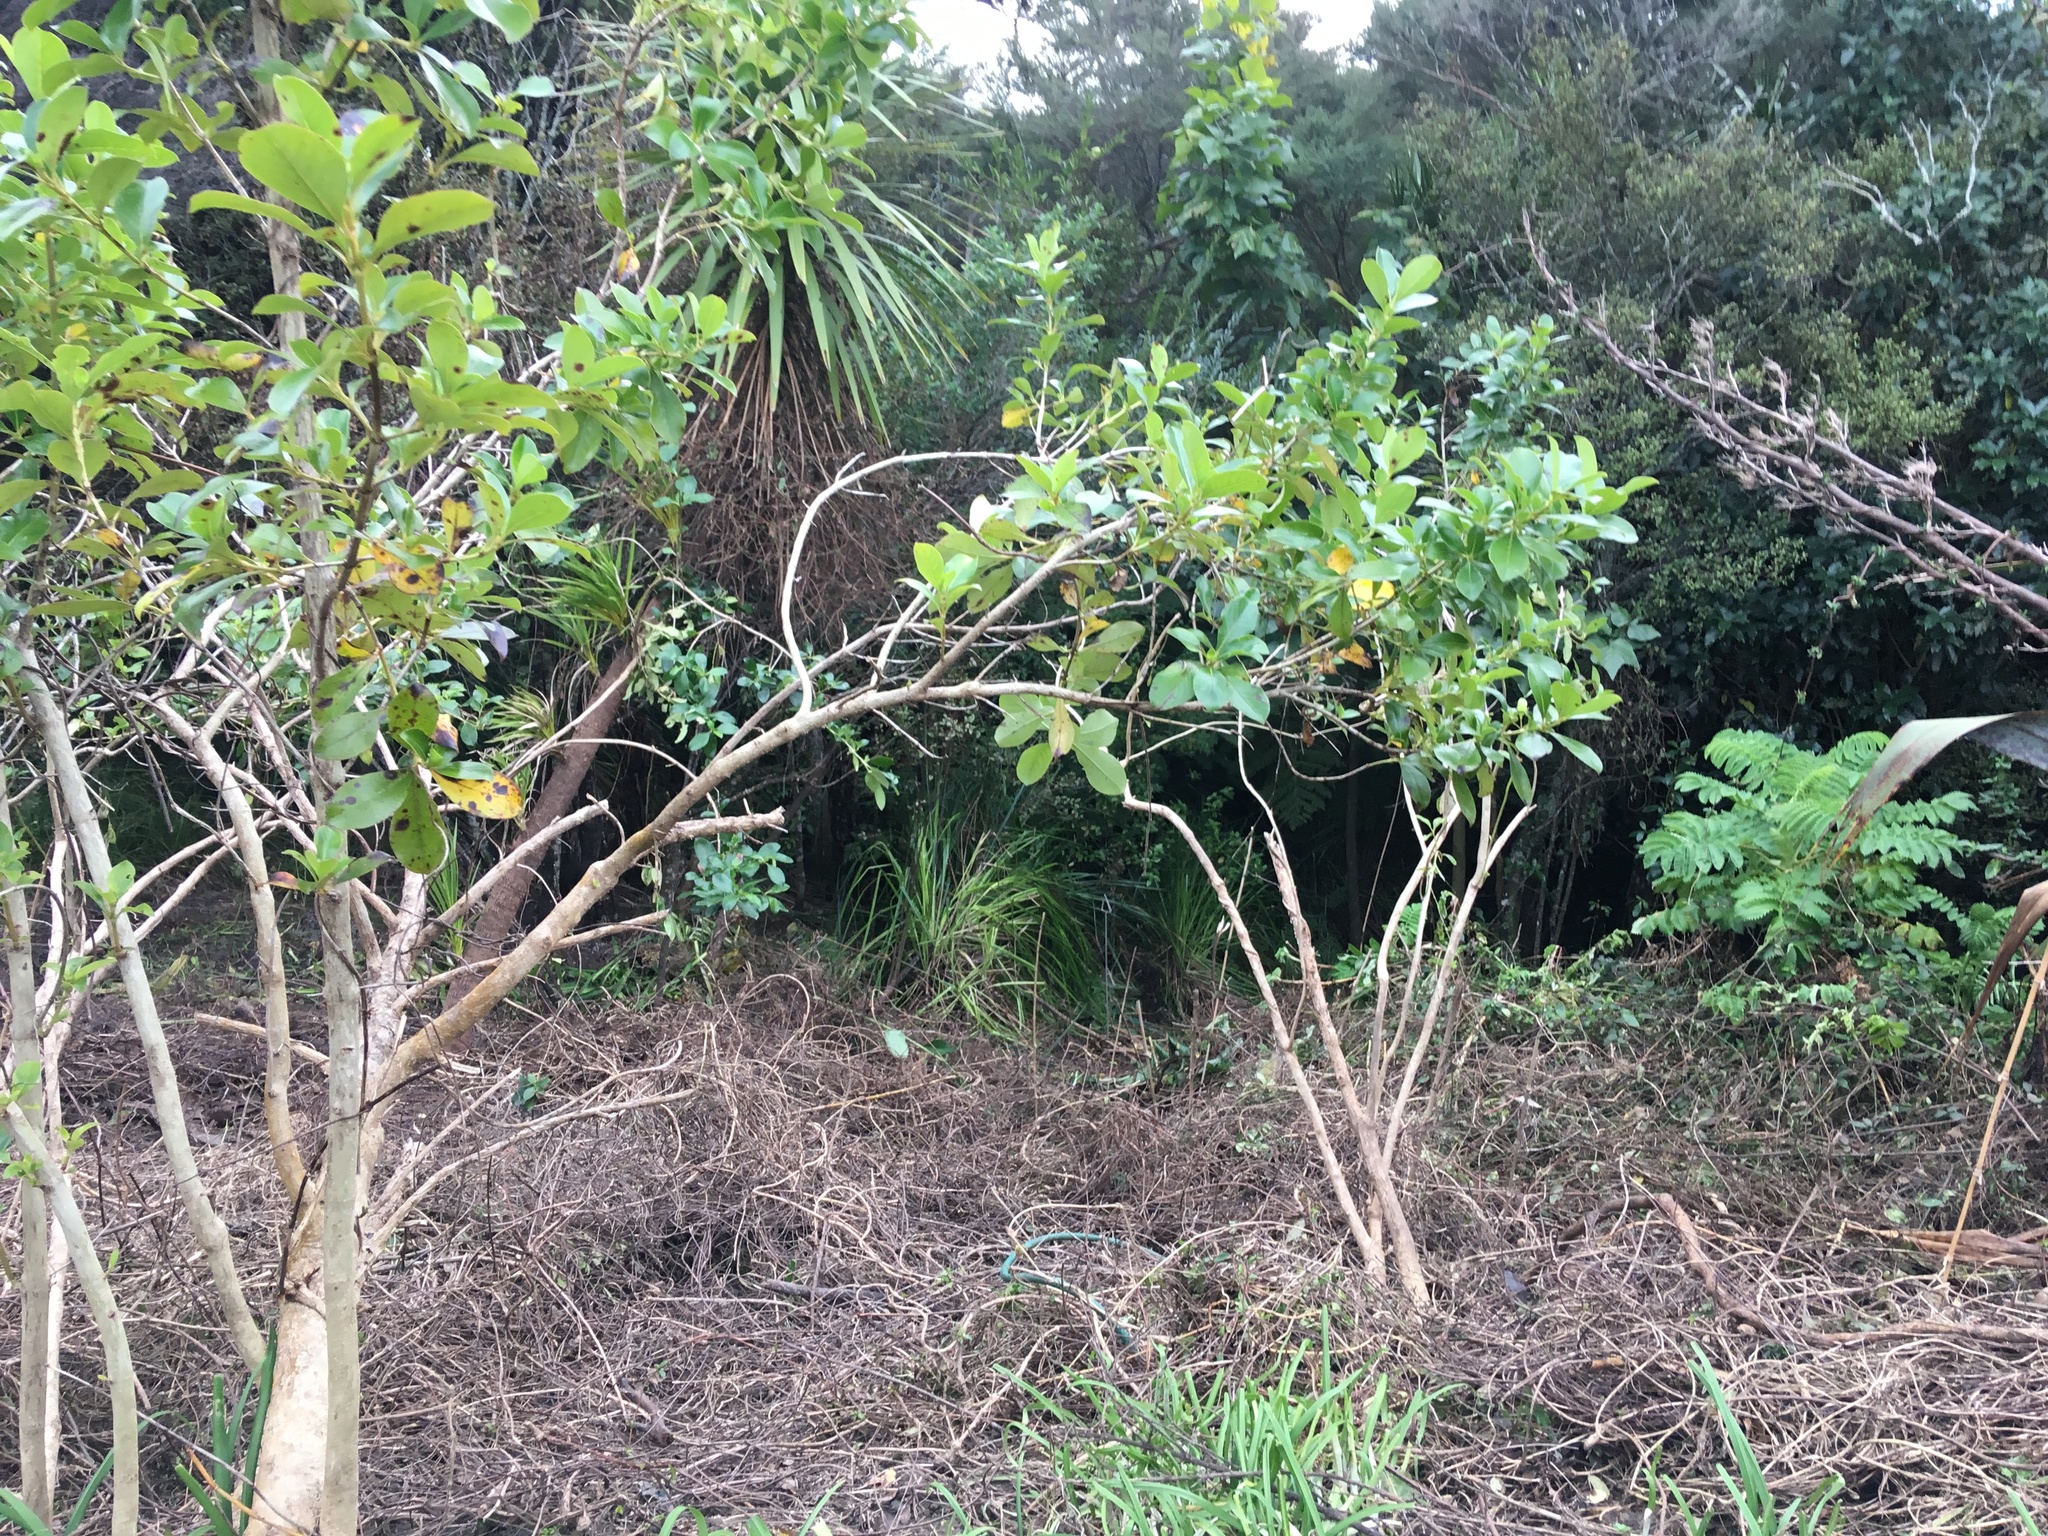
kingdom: Plantae
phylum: Tracheophyta
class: Magnoliopsida
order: Gentianales
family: Rubiaceae
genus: Coprosma
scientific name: Coprosma robusta
